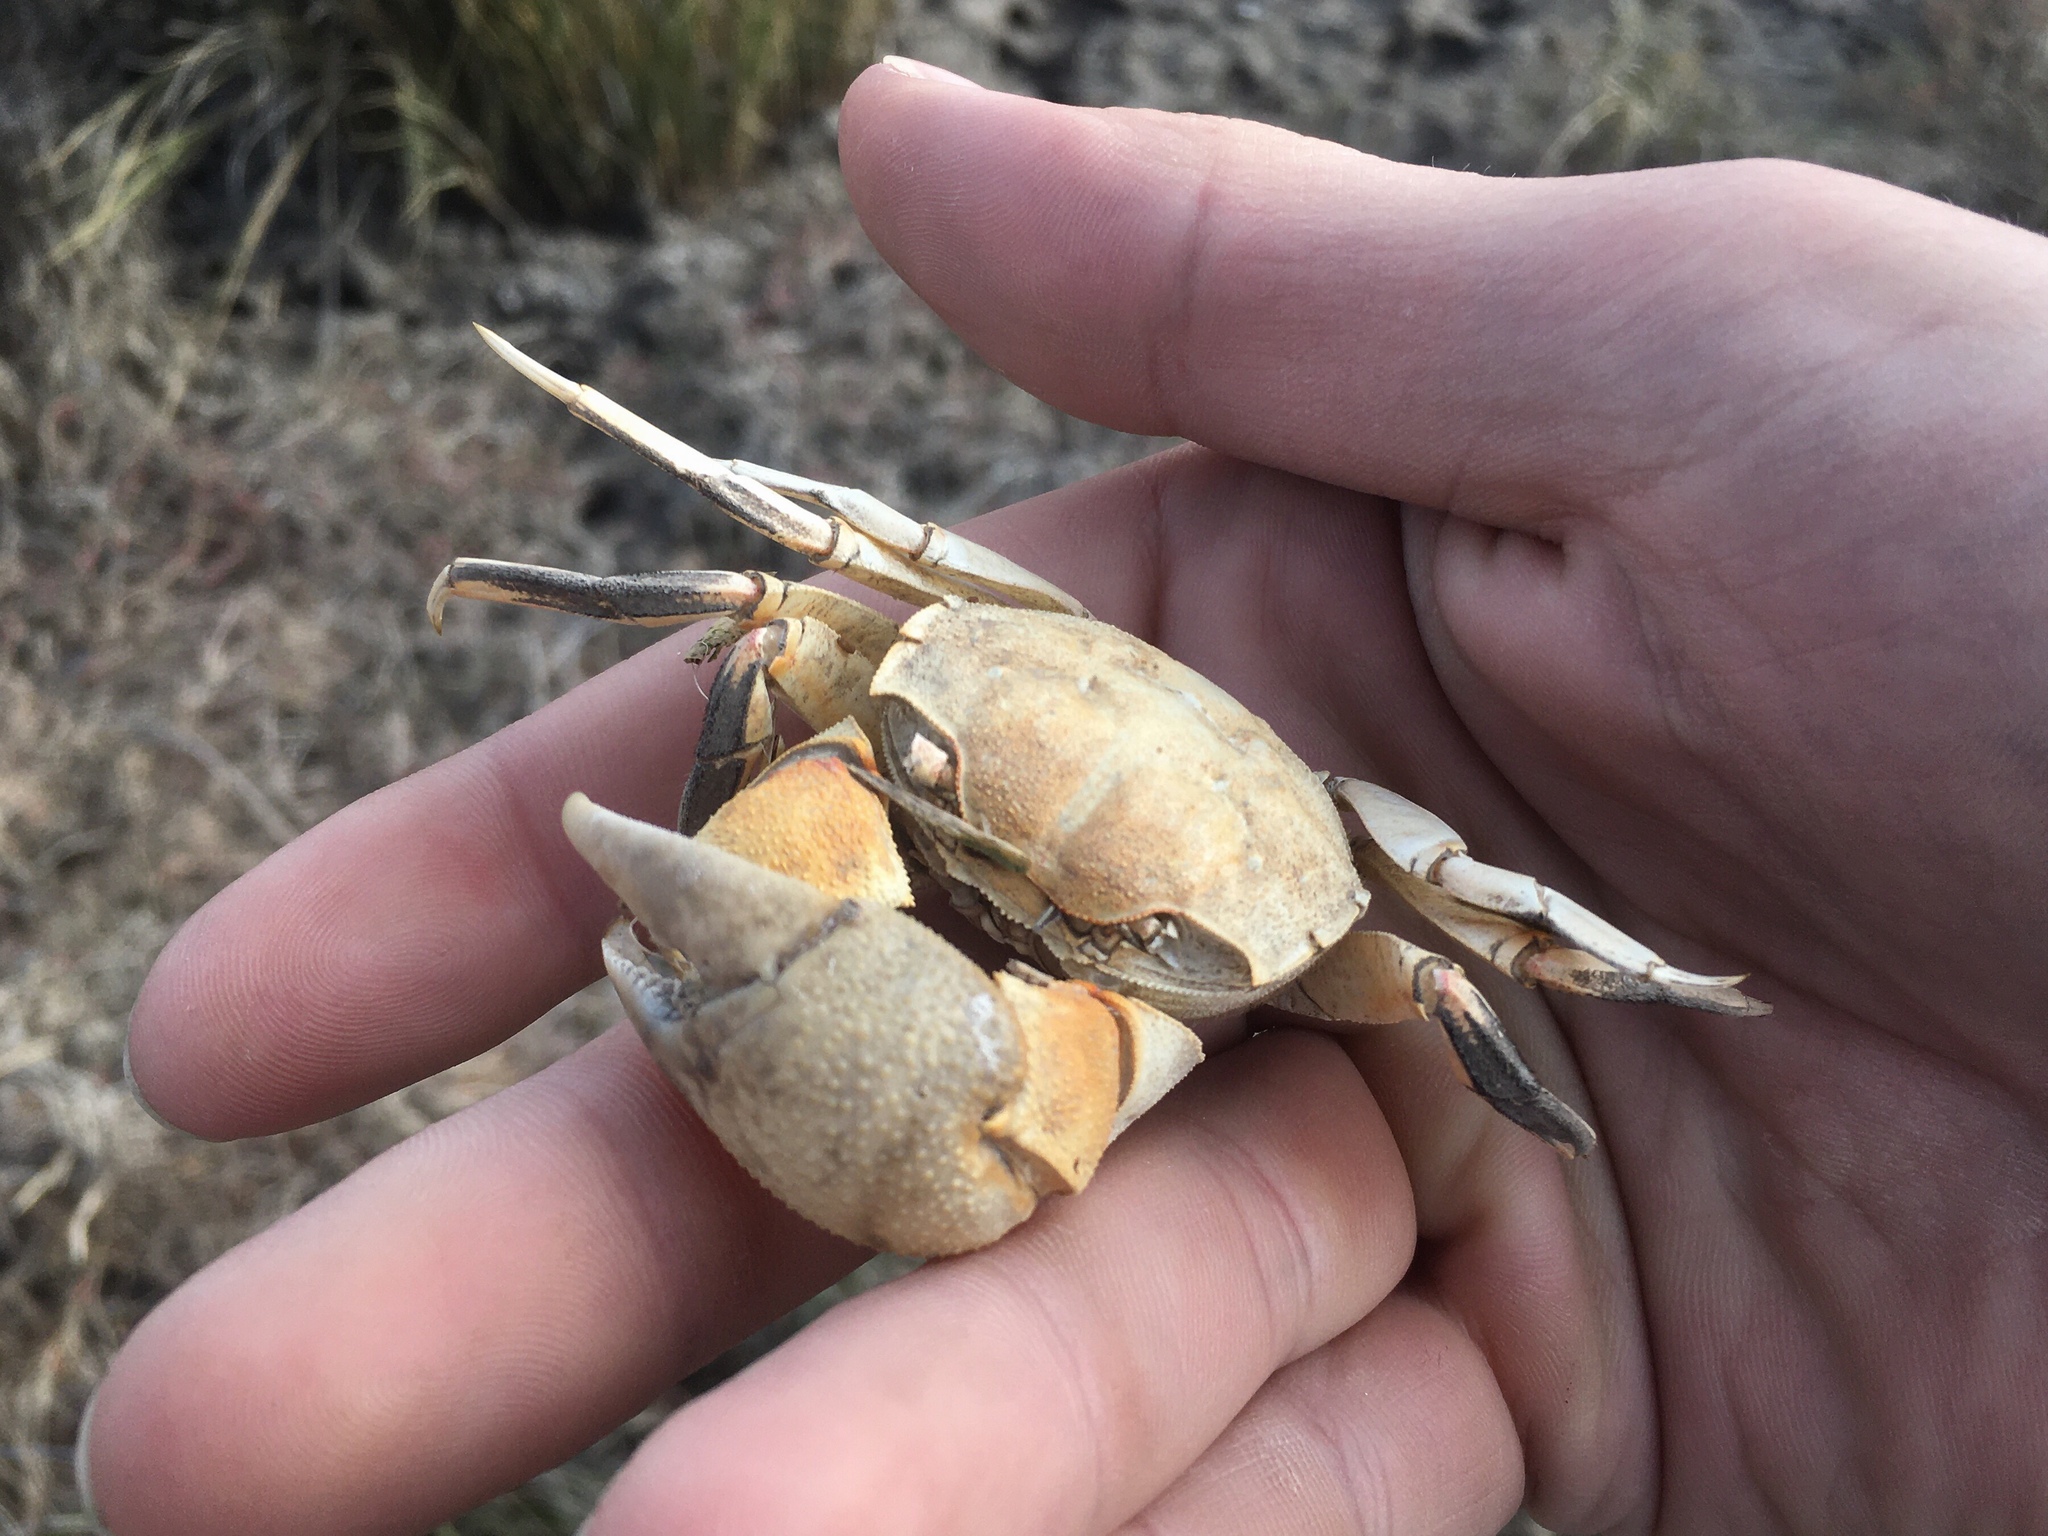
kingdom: Animalia
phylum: Arthropoda
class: Malacostraca
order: Decapoda
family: Varunidae
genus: Neohelice
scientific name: Neohelice granulata
